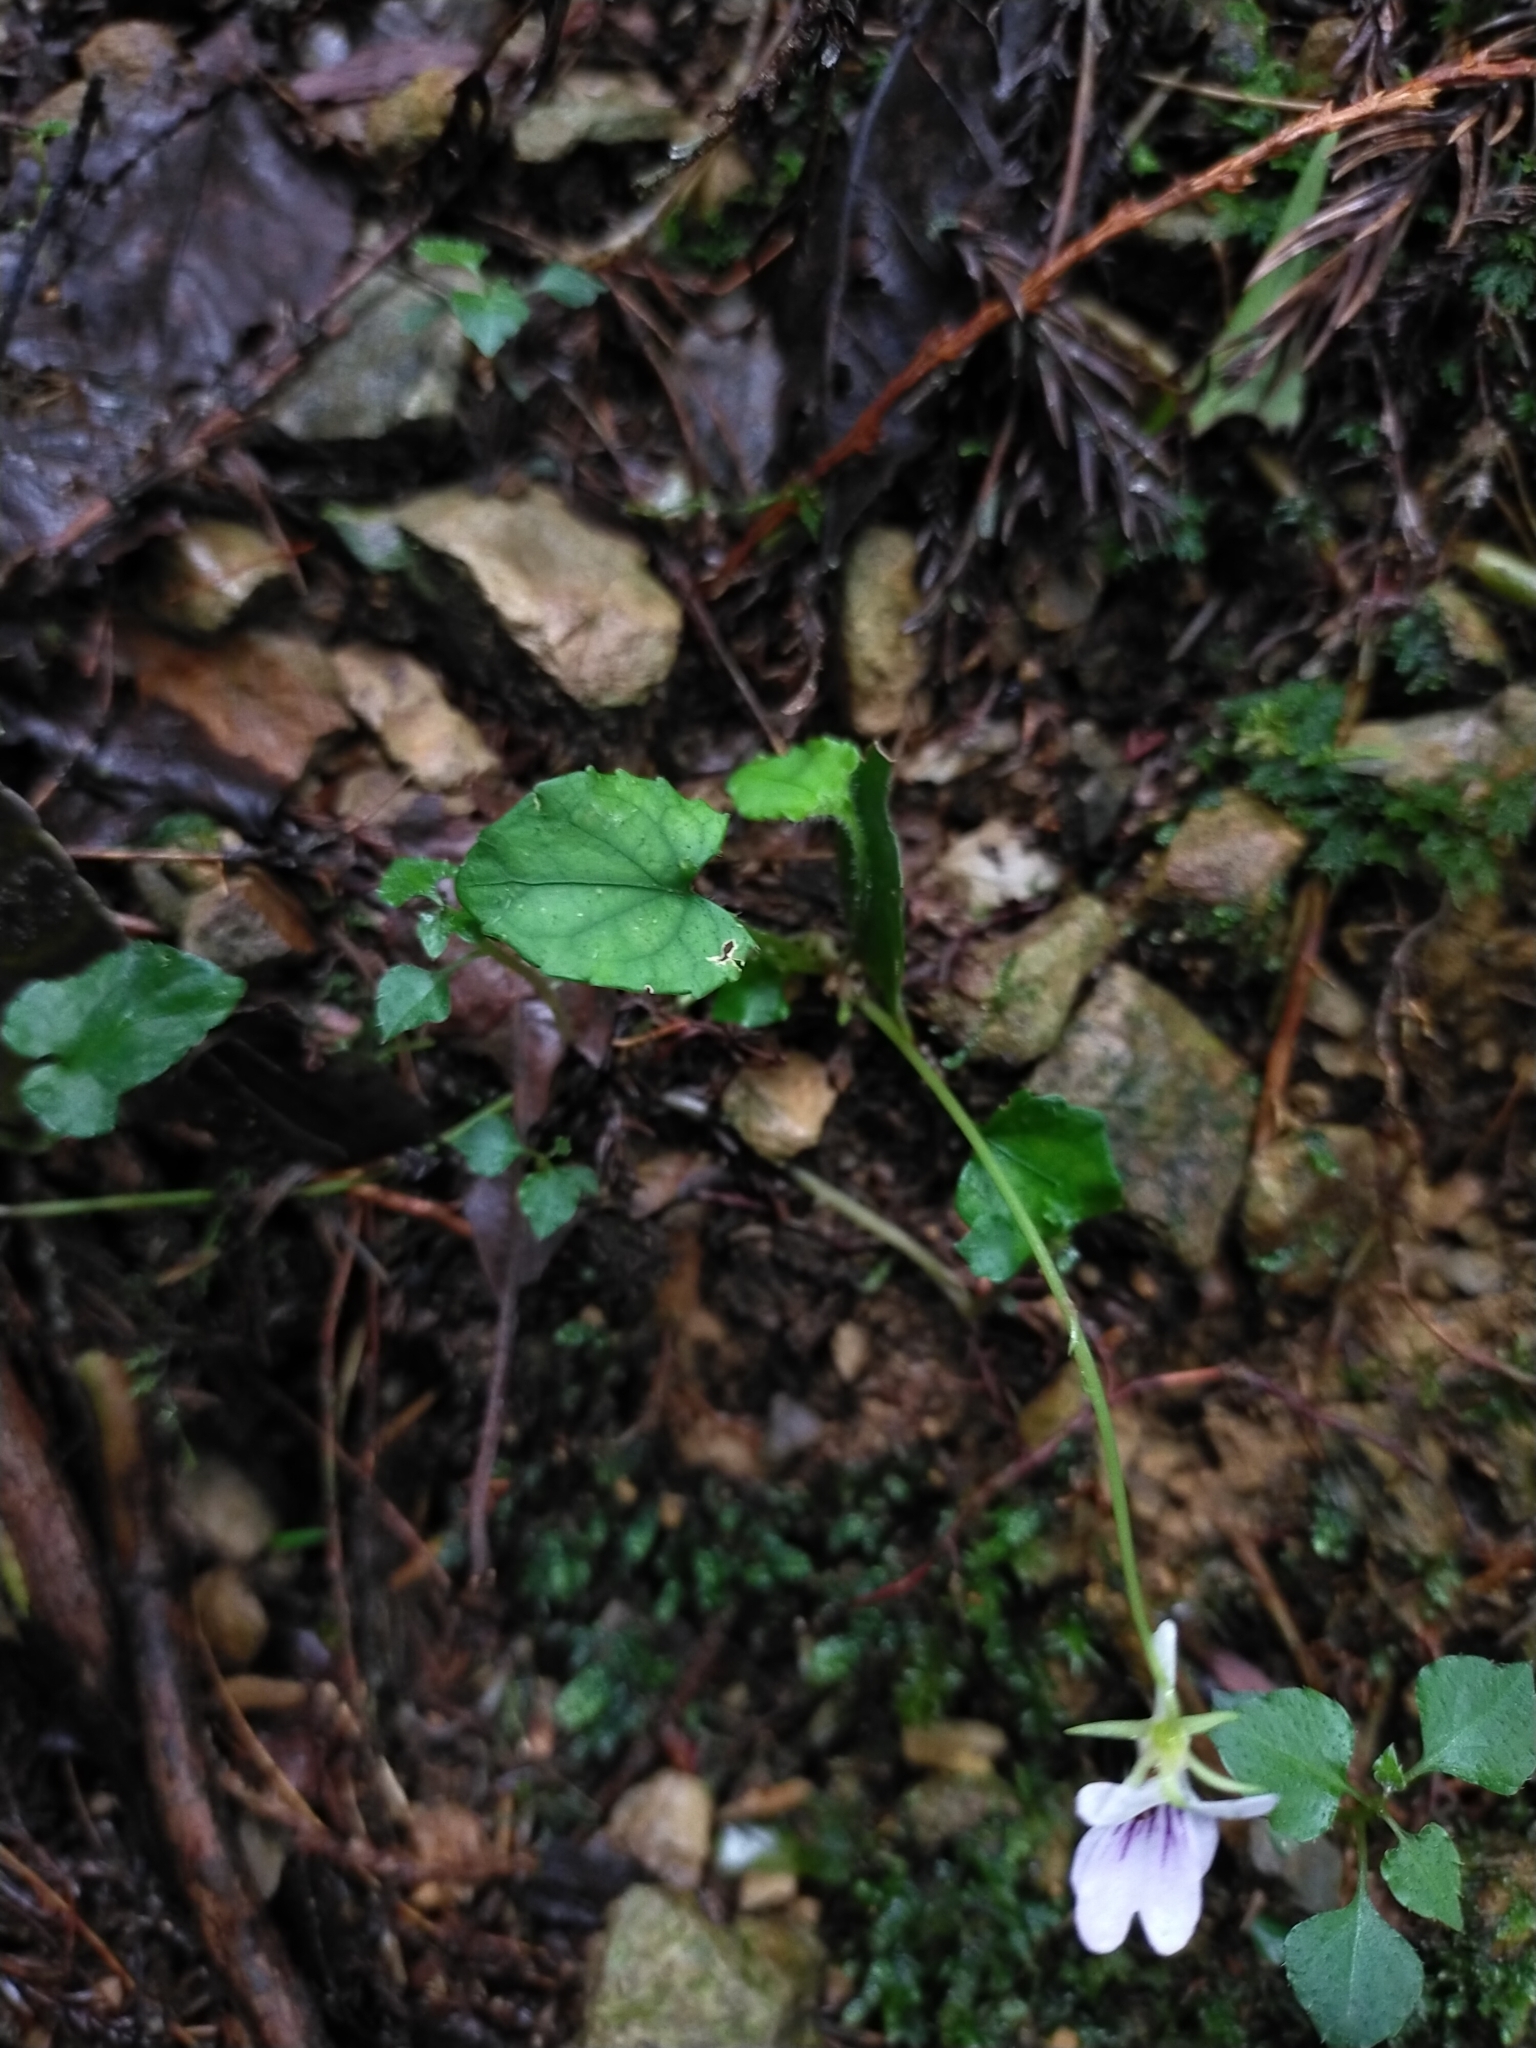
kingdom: Plantae
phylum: Tracheophyta
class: Magnoliopsida
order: Malpighiales
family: Violaceae
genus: Viola
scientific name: Viola formosana
